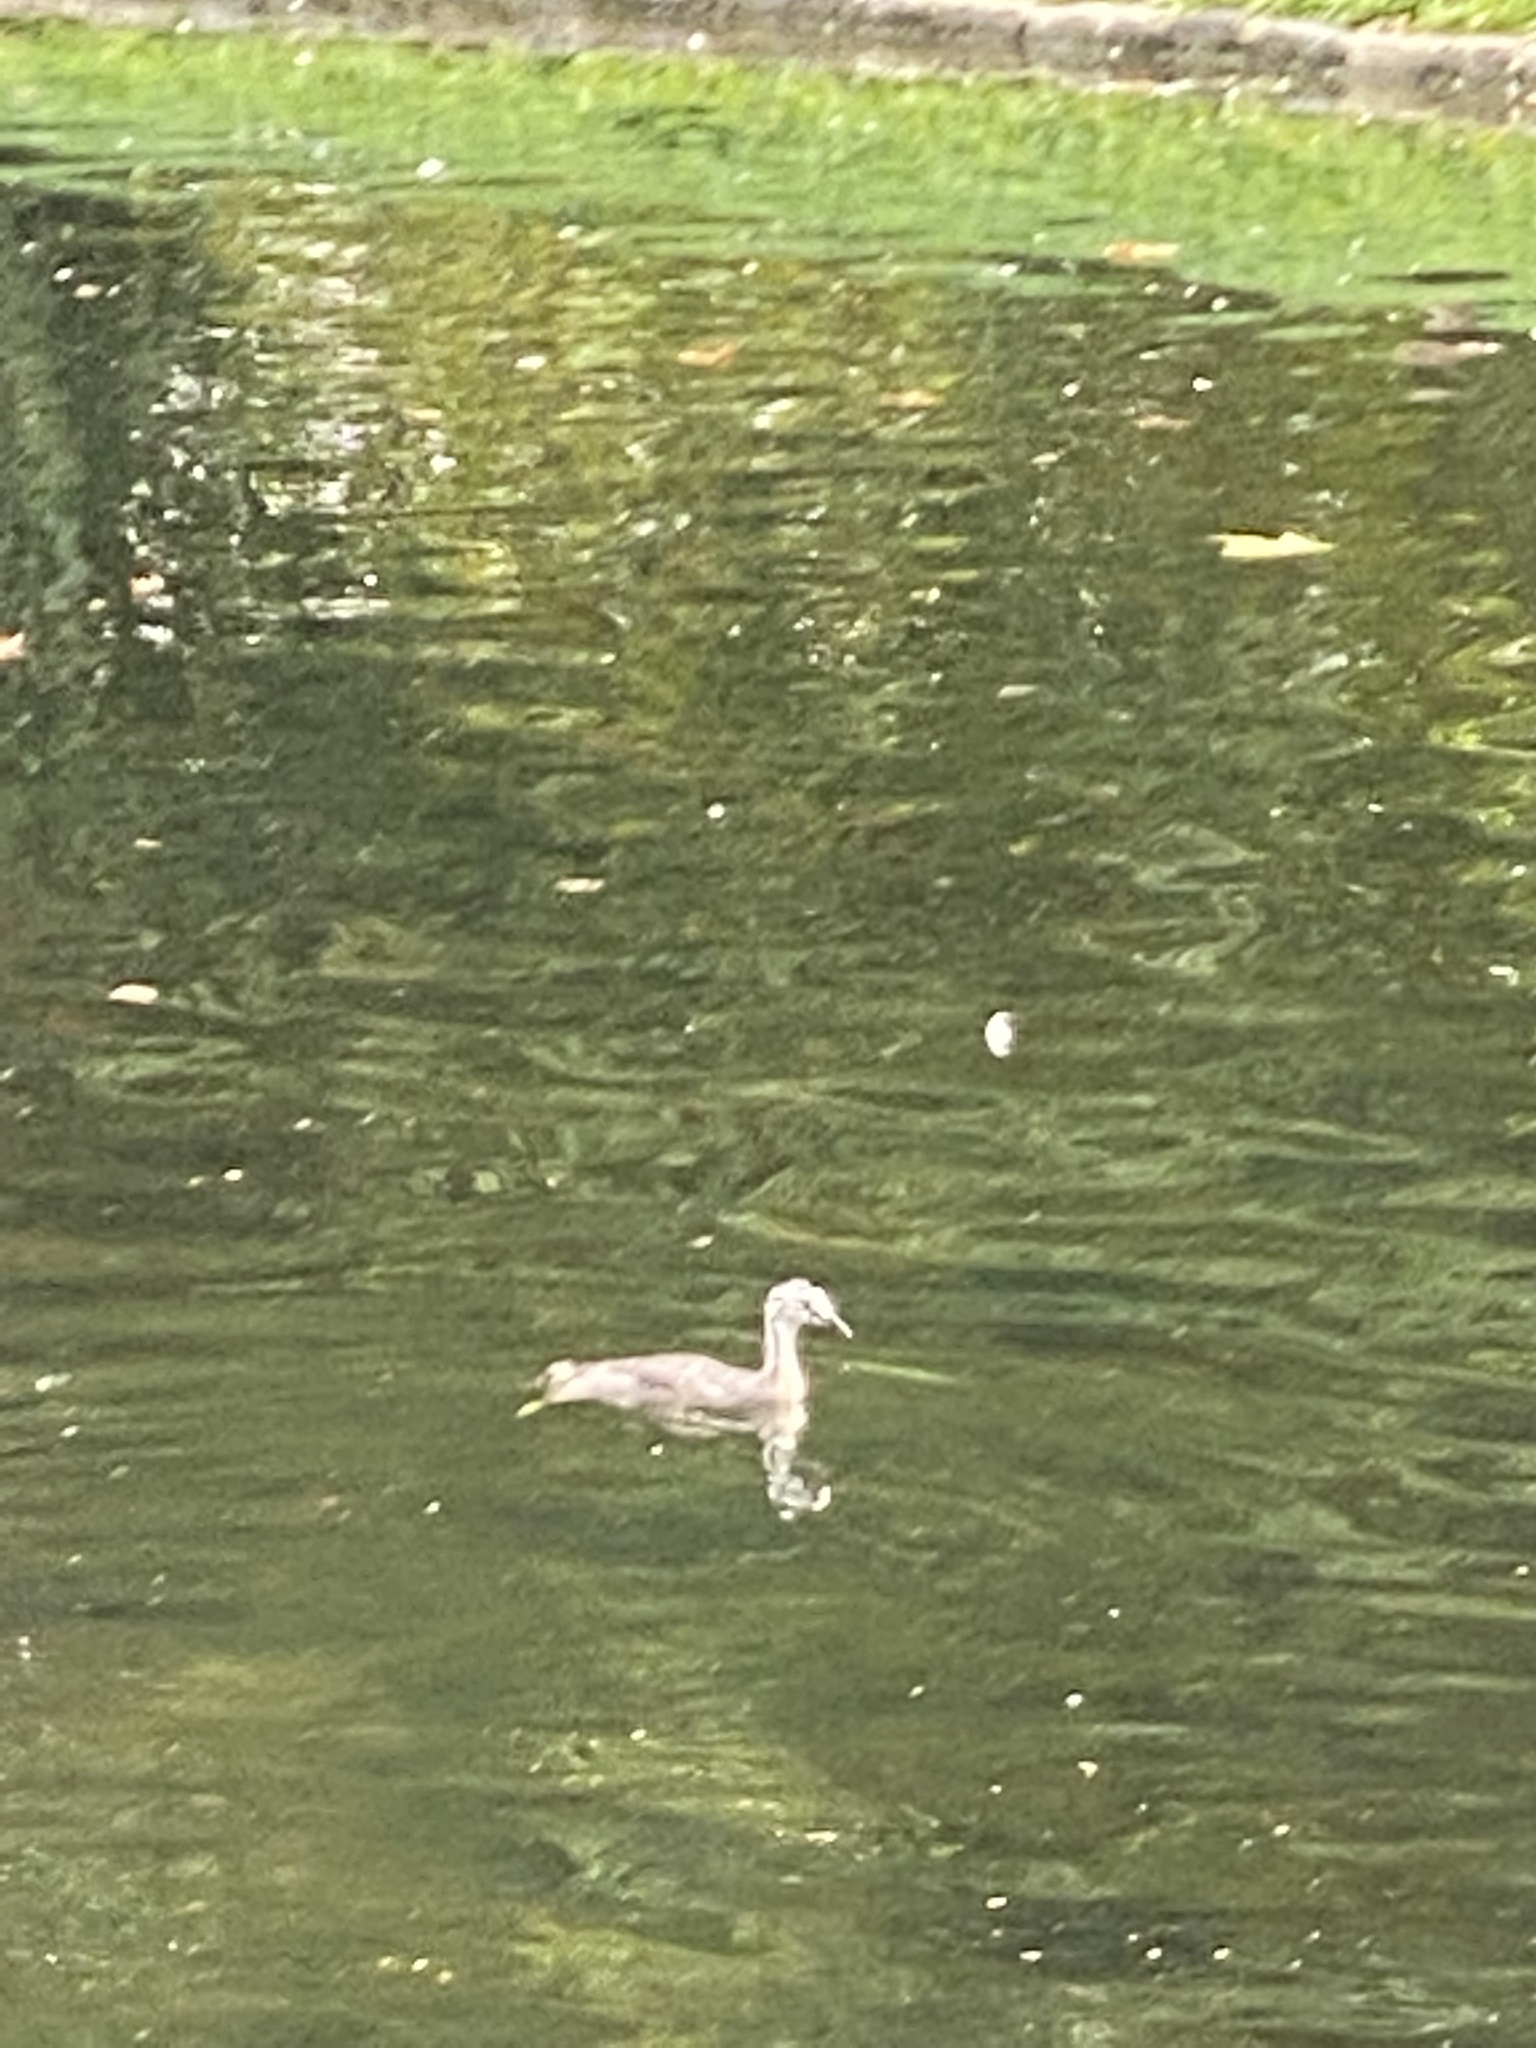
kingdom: Animalia
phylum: Chordata
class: Aves
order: Podicipediformes
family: Podicipedidae
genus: Podiceps
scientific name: Podiceps cristatus
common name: Great crested grebe
